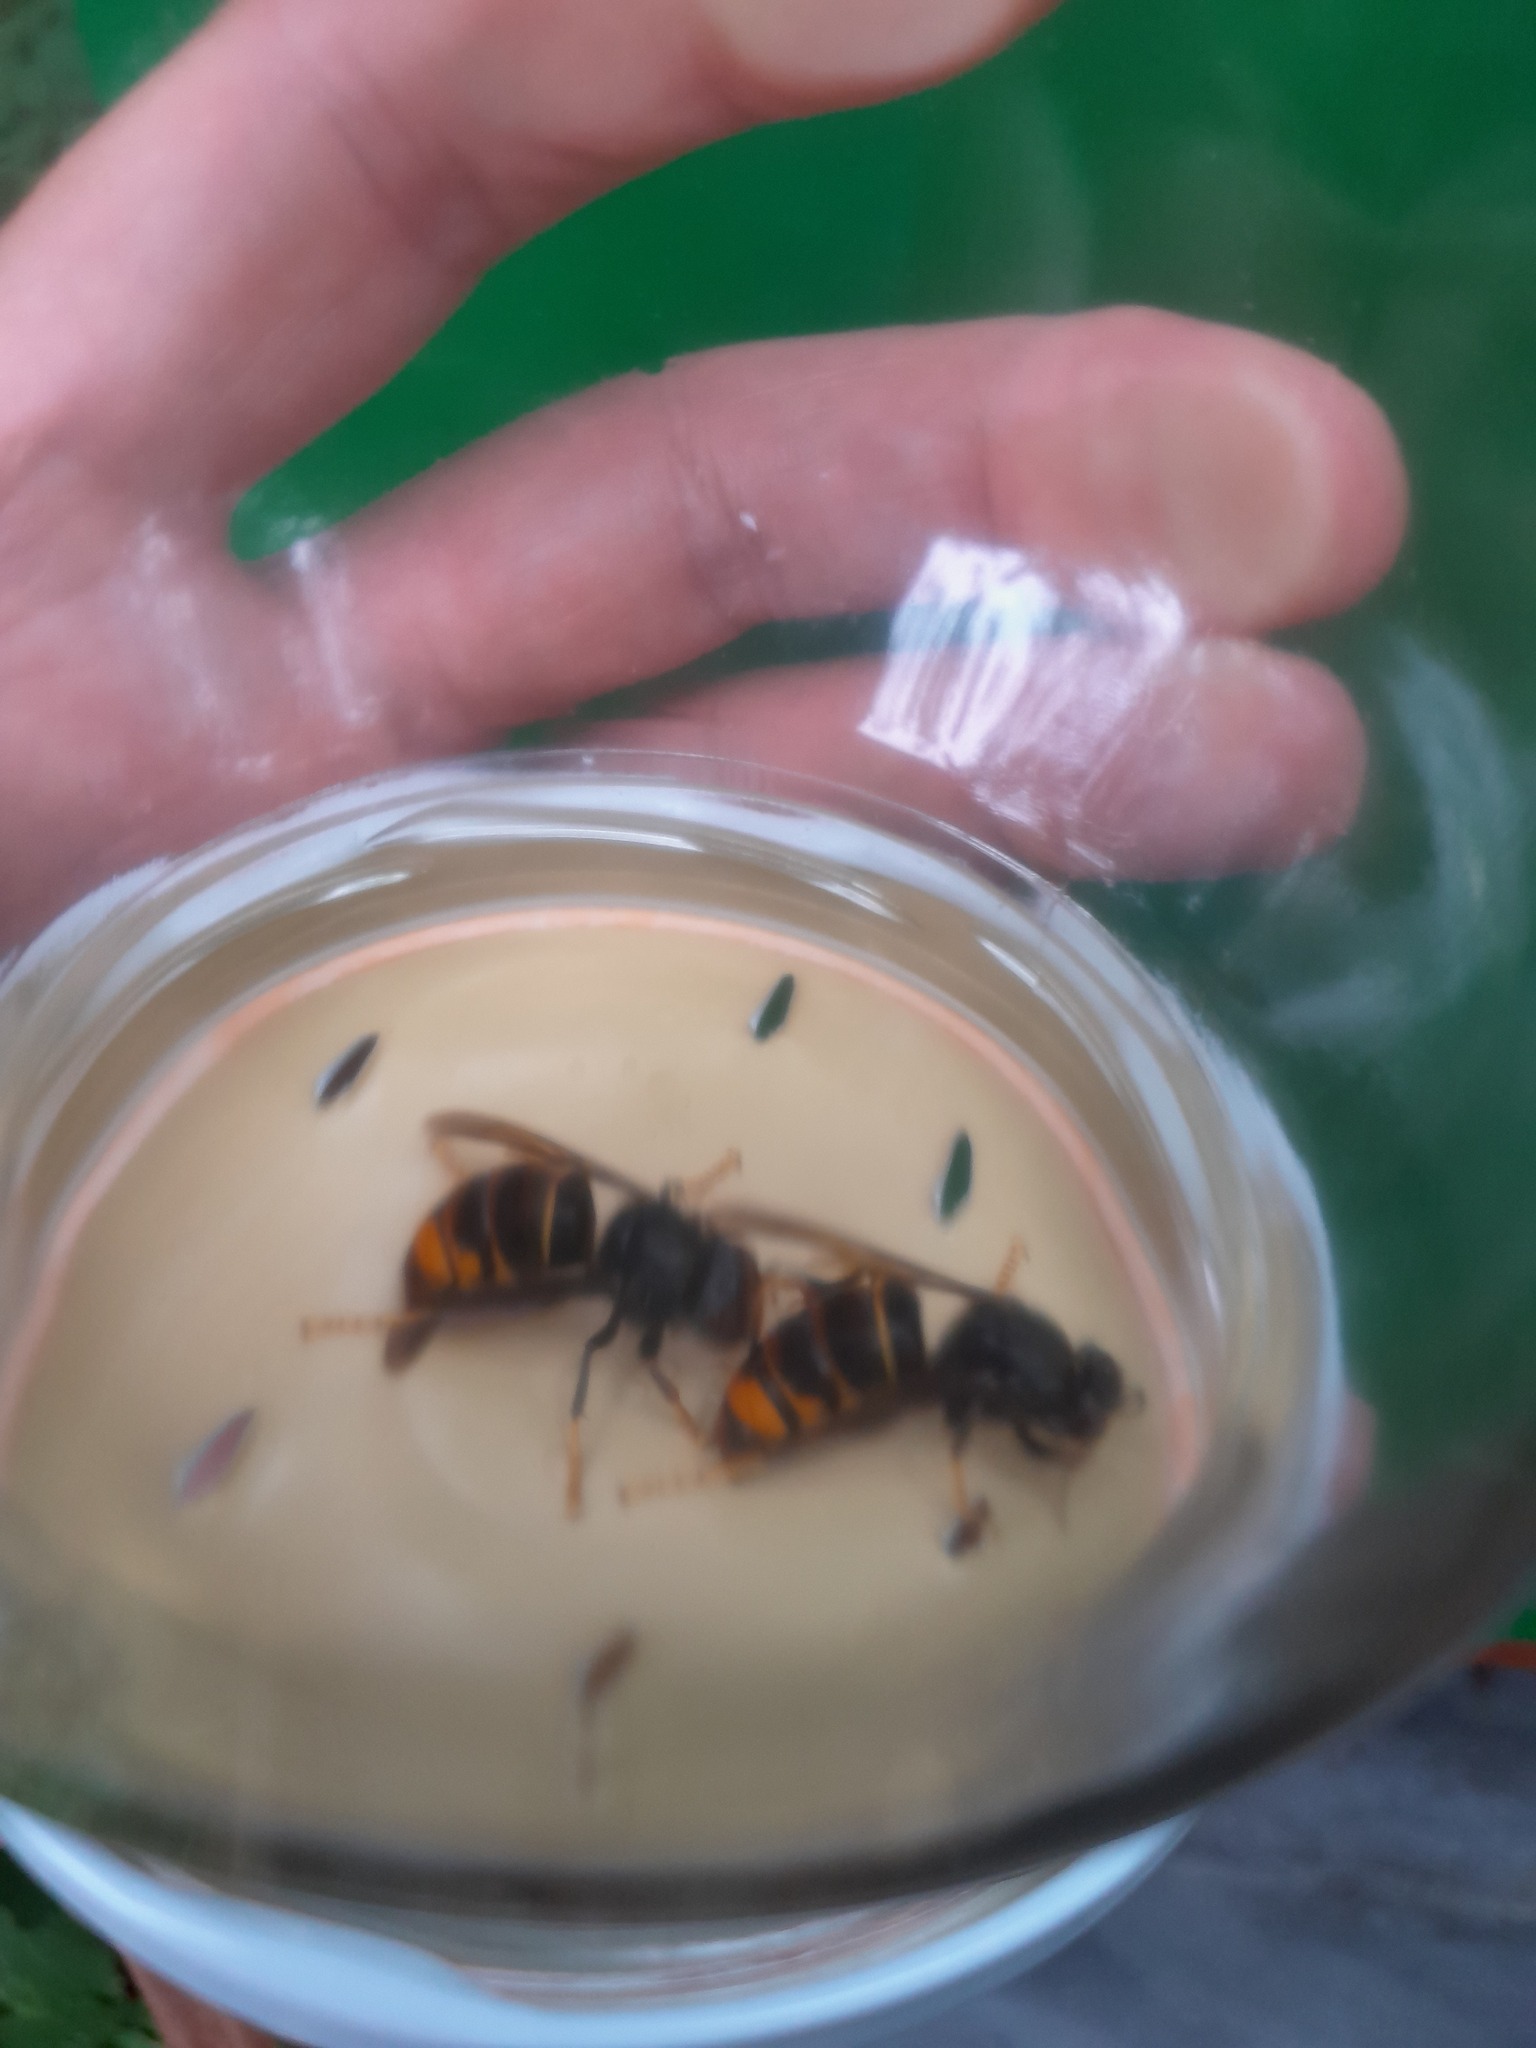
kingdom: Animalia
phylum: Arthropoda
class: Insecta
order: Hymenoptera
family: Vespidae
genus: Vespa
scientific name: Vespa velutina
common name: Asian hornet
